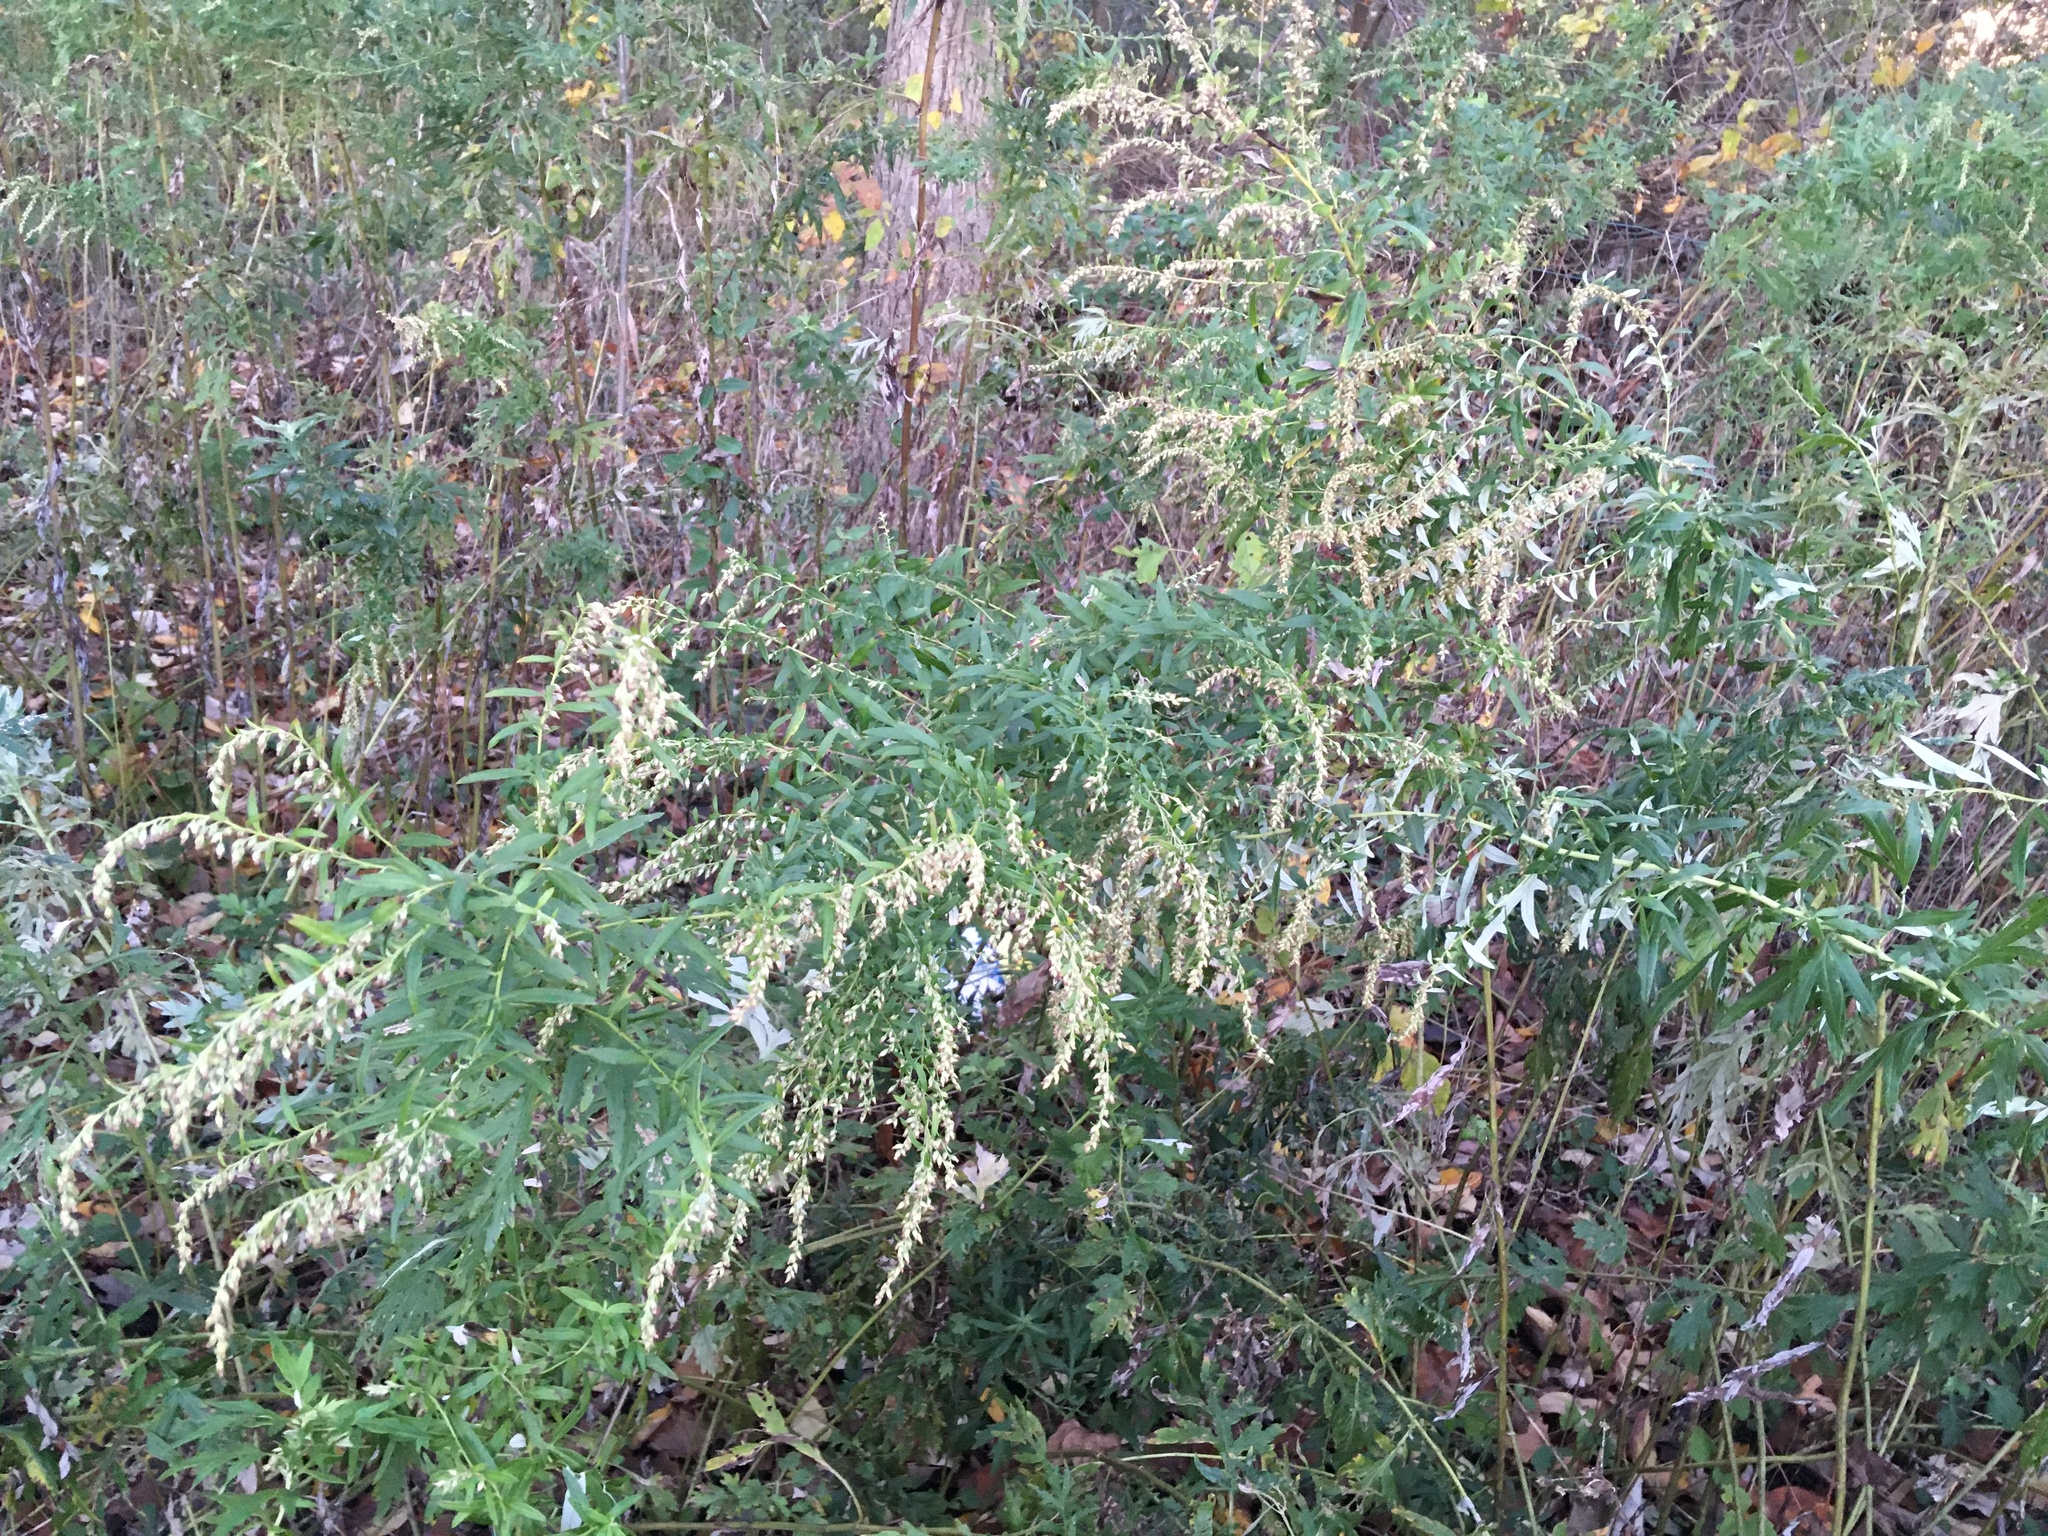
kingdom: Plantae
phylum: Tracheophyta
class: Magnoliopsida
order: Asterales
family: Asteraceae
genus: Artemisia
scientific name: Artemisia vulgaris
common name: Mugwort
